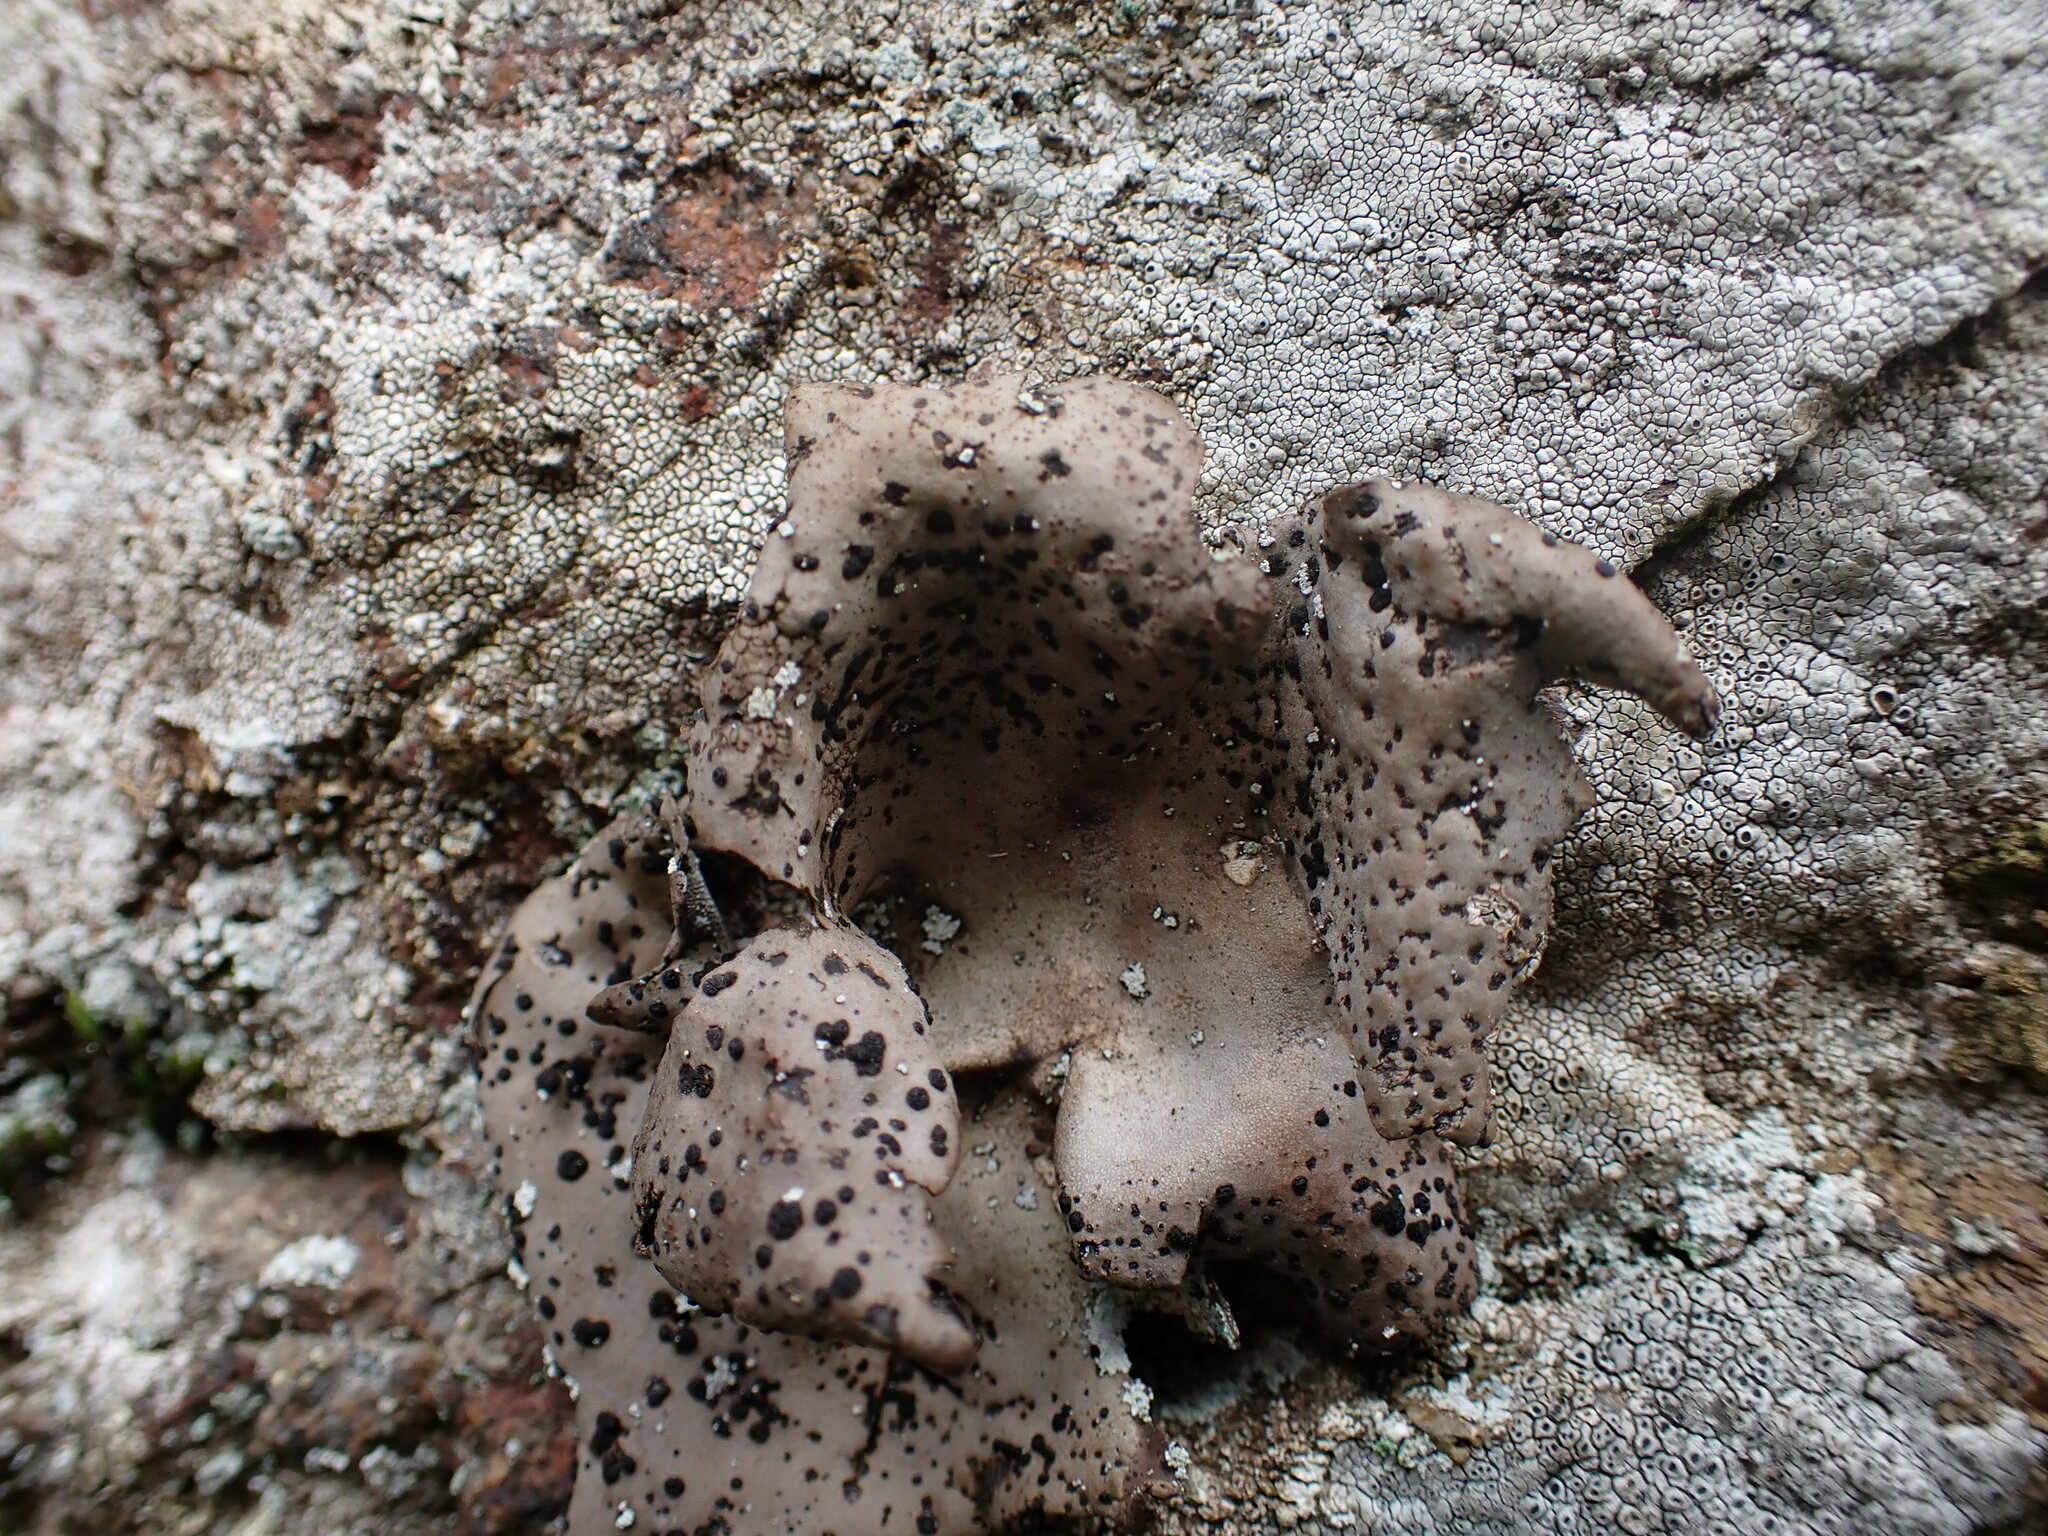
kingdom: Fungi
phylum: Ascomycota
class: Lecanoromycetes
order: Umbilicariales
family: Umbilicariaceae
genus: Umbilicaria
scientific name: Umbilicaria polyphylla
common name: Petalled rocktripe lichen
